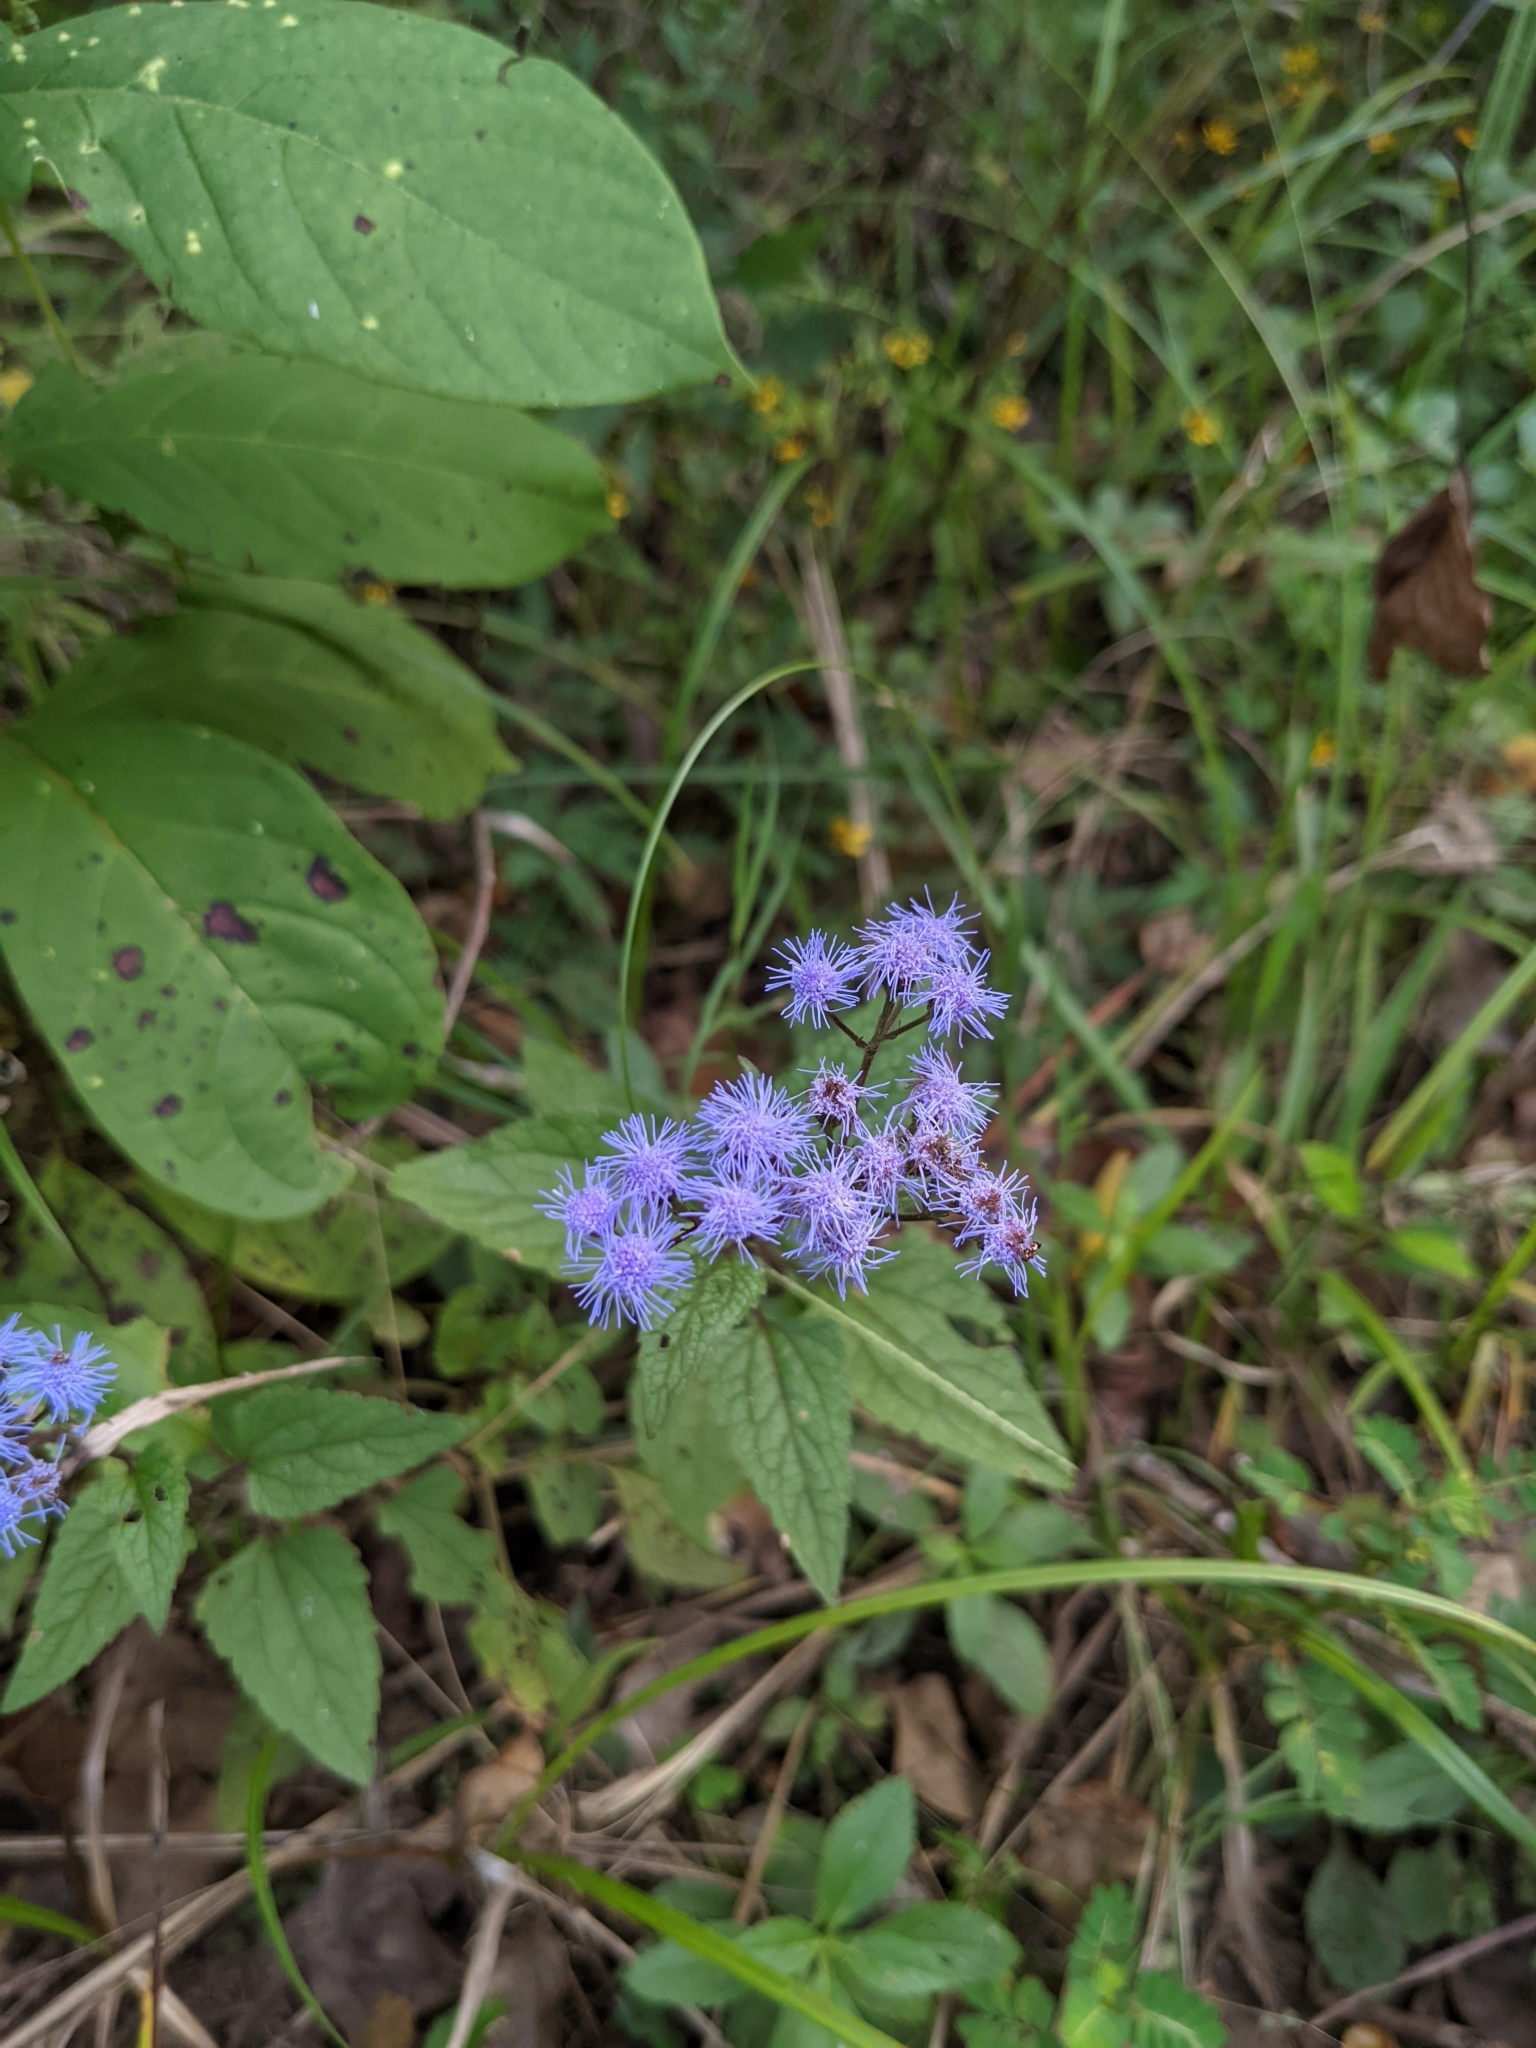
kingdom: Plantae
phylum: Tracheophyta
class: Magnoliopsida
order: Asterales
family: Asteraceae
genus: Conoclinium
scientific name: Conoclinium coelestinum
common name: Blue mistflower
